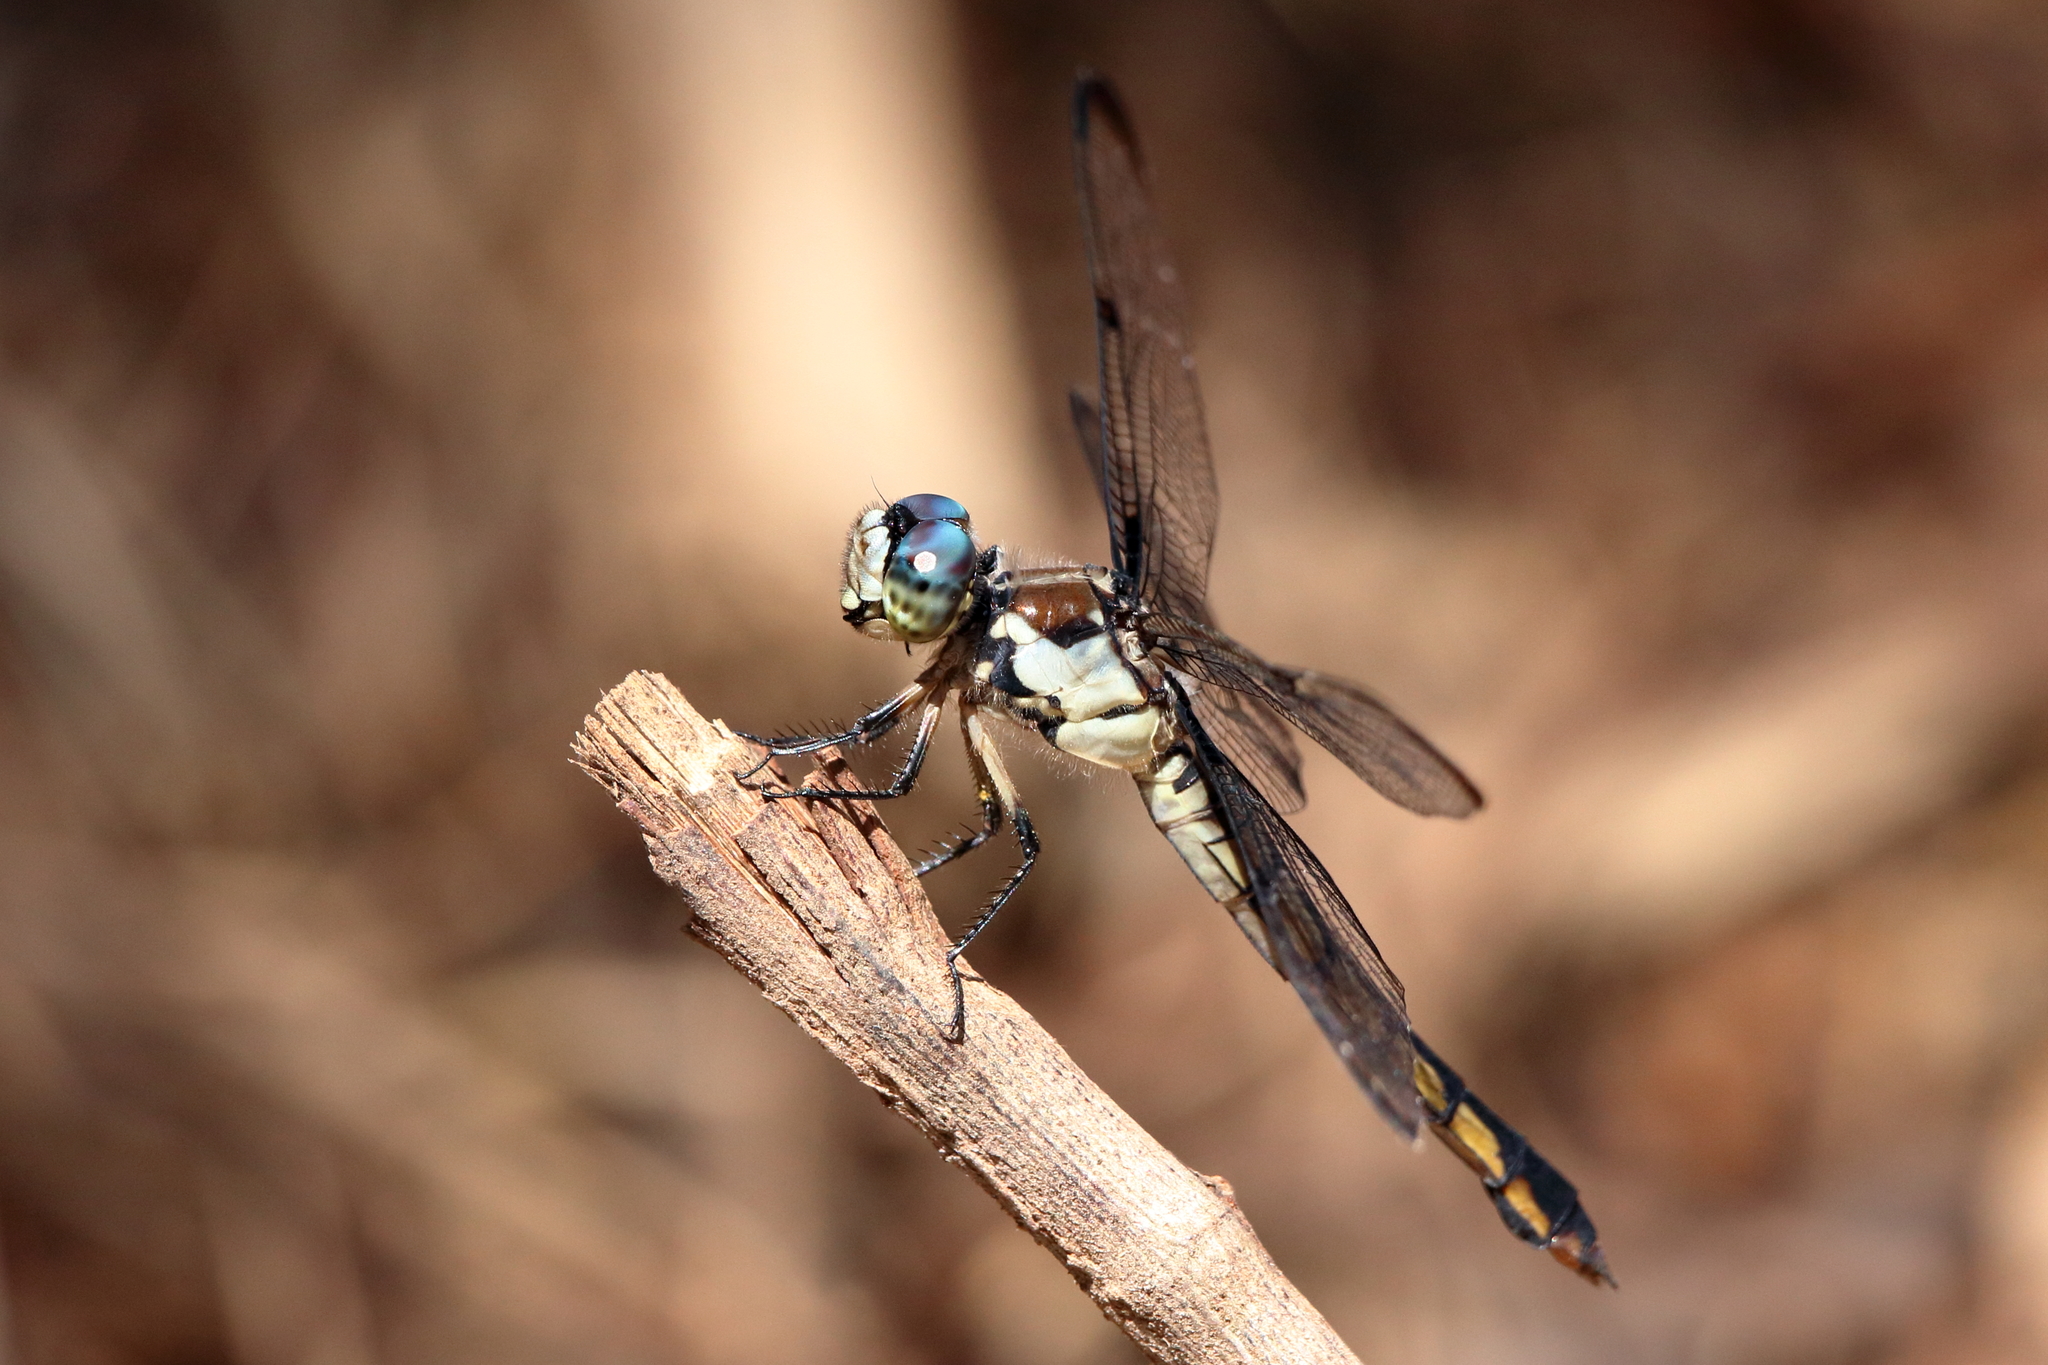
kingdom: Animalia
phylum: Arthropoda
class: Insecta
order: Odonata
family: Libellulidae
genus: Libellula
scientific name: Libellula vibrans
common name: Great blue skimmer
